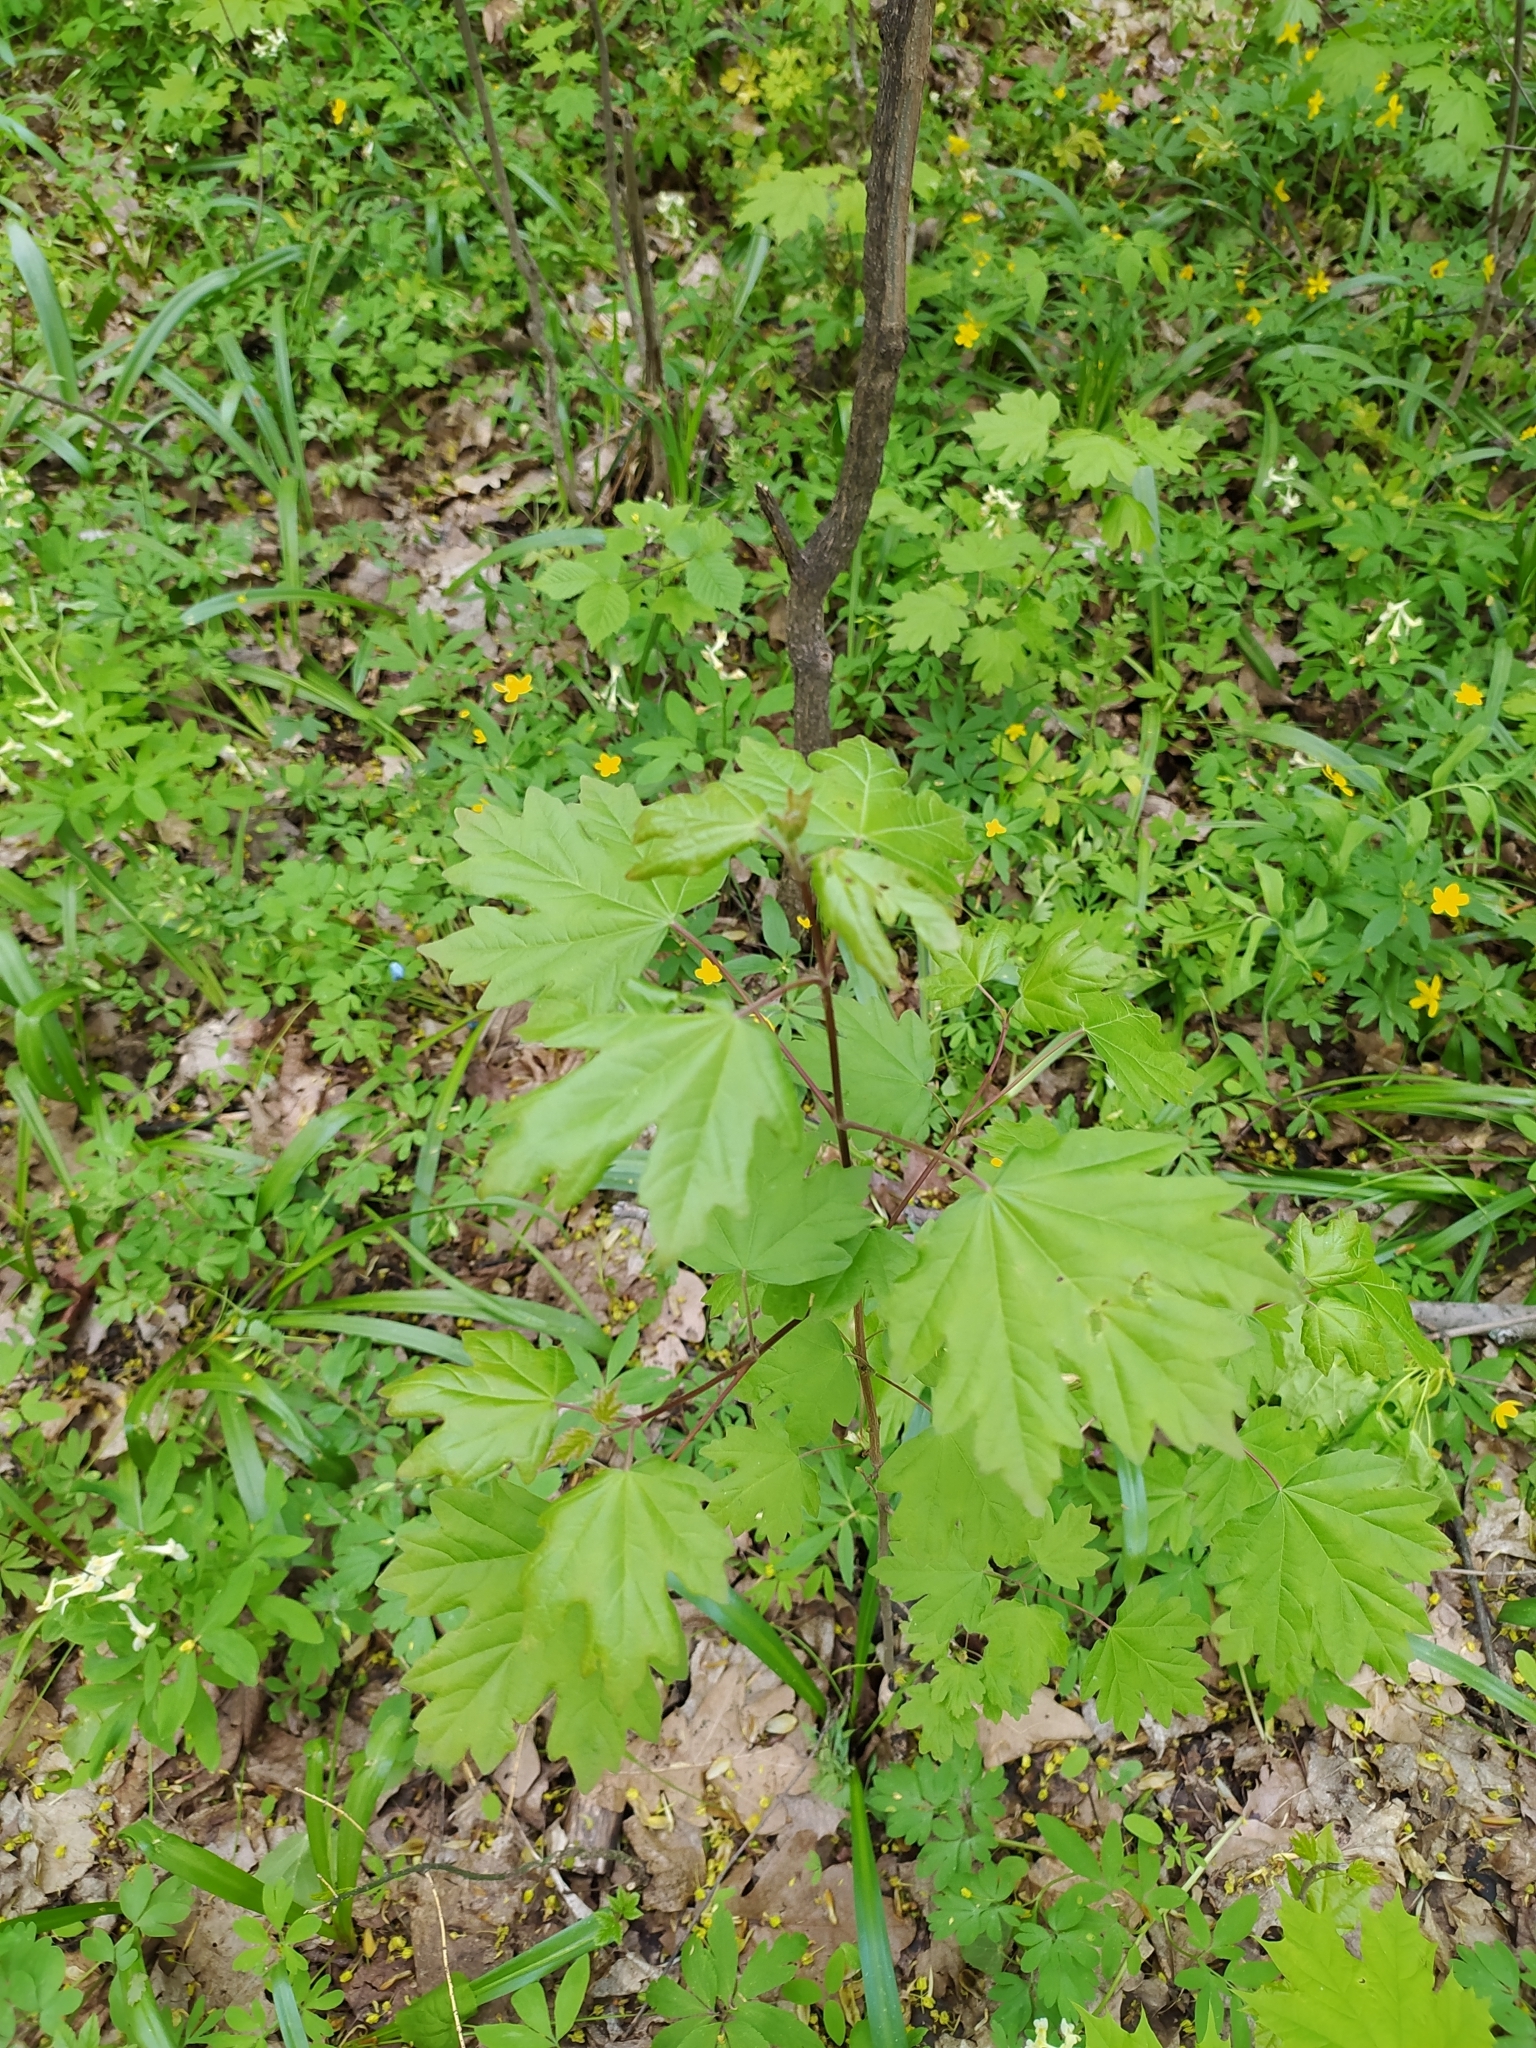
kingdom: Plantae
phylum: Tracheophyta
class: Magnoliopsida
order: Sapindales
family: Sapindaceae
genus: Acer
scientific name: Acer campestre
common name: Field maple
